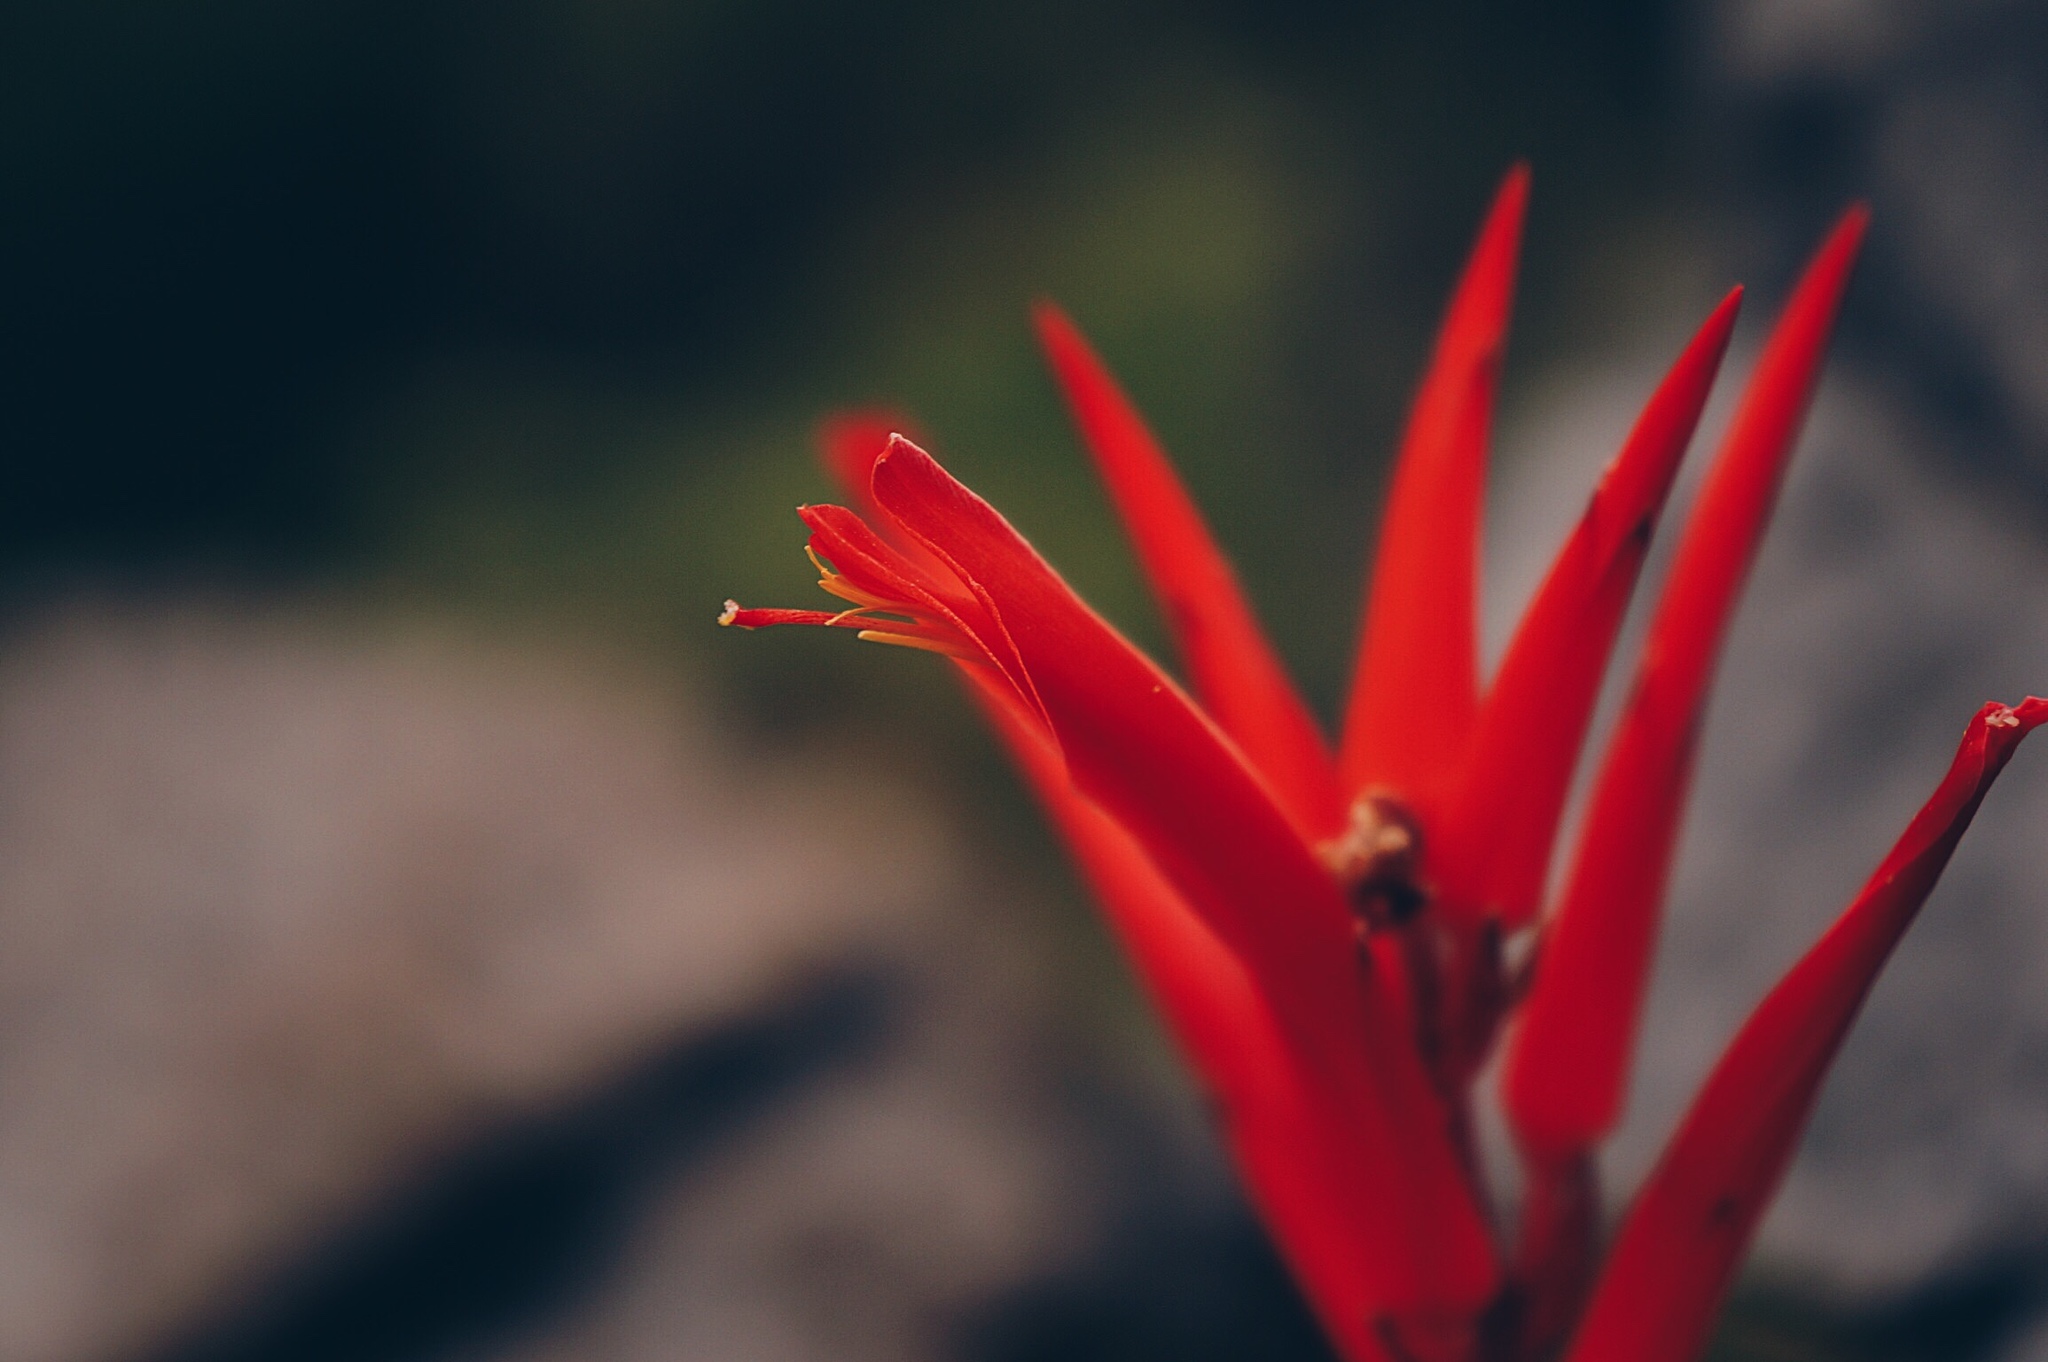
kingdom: Plantae
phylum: Tracheophyta
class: Liliopsida
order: Poales
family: Bromeliaceae
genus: Pitcairnia
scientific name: Pitcairnia ringens
